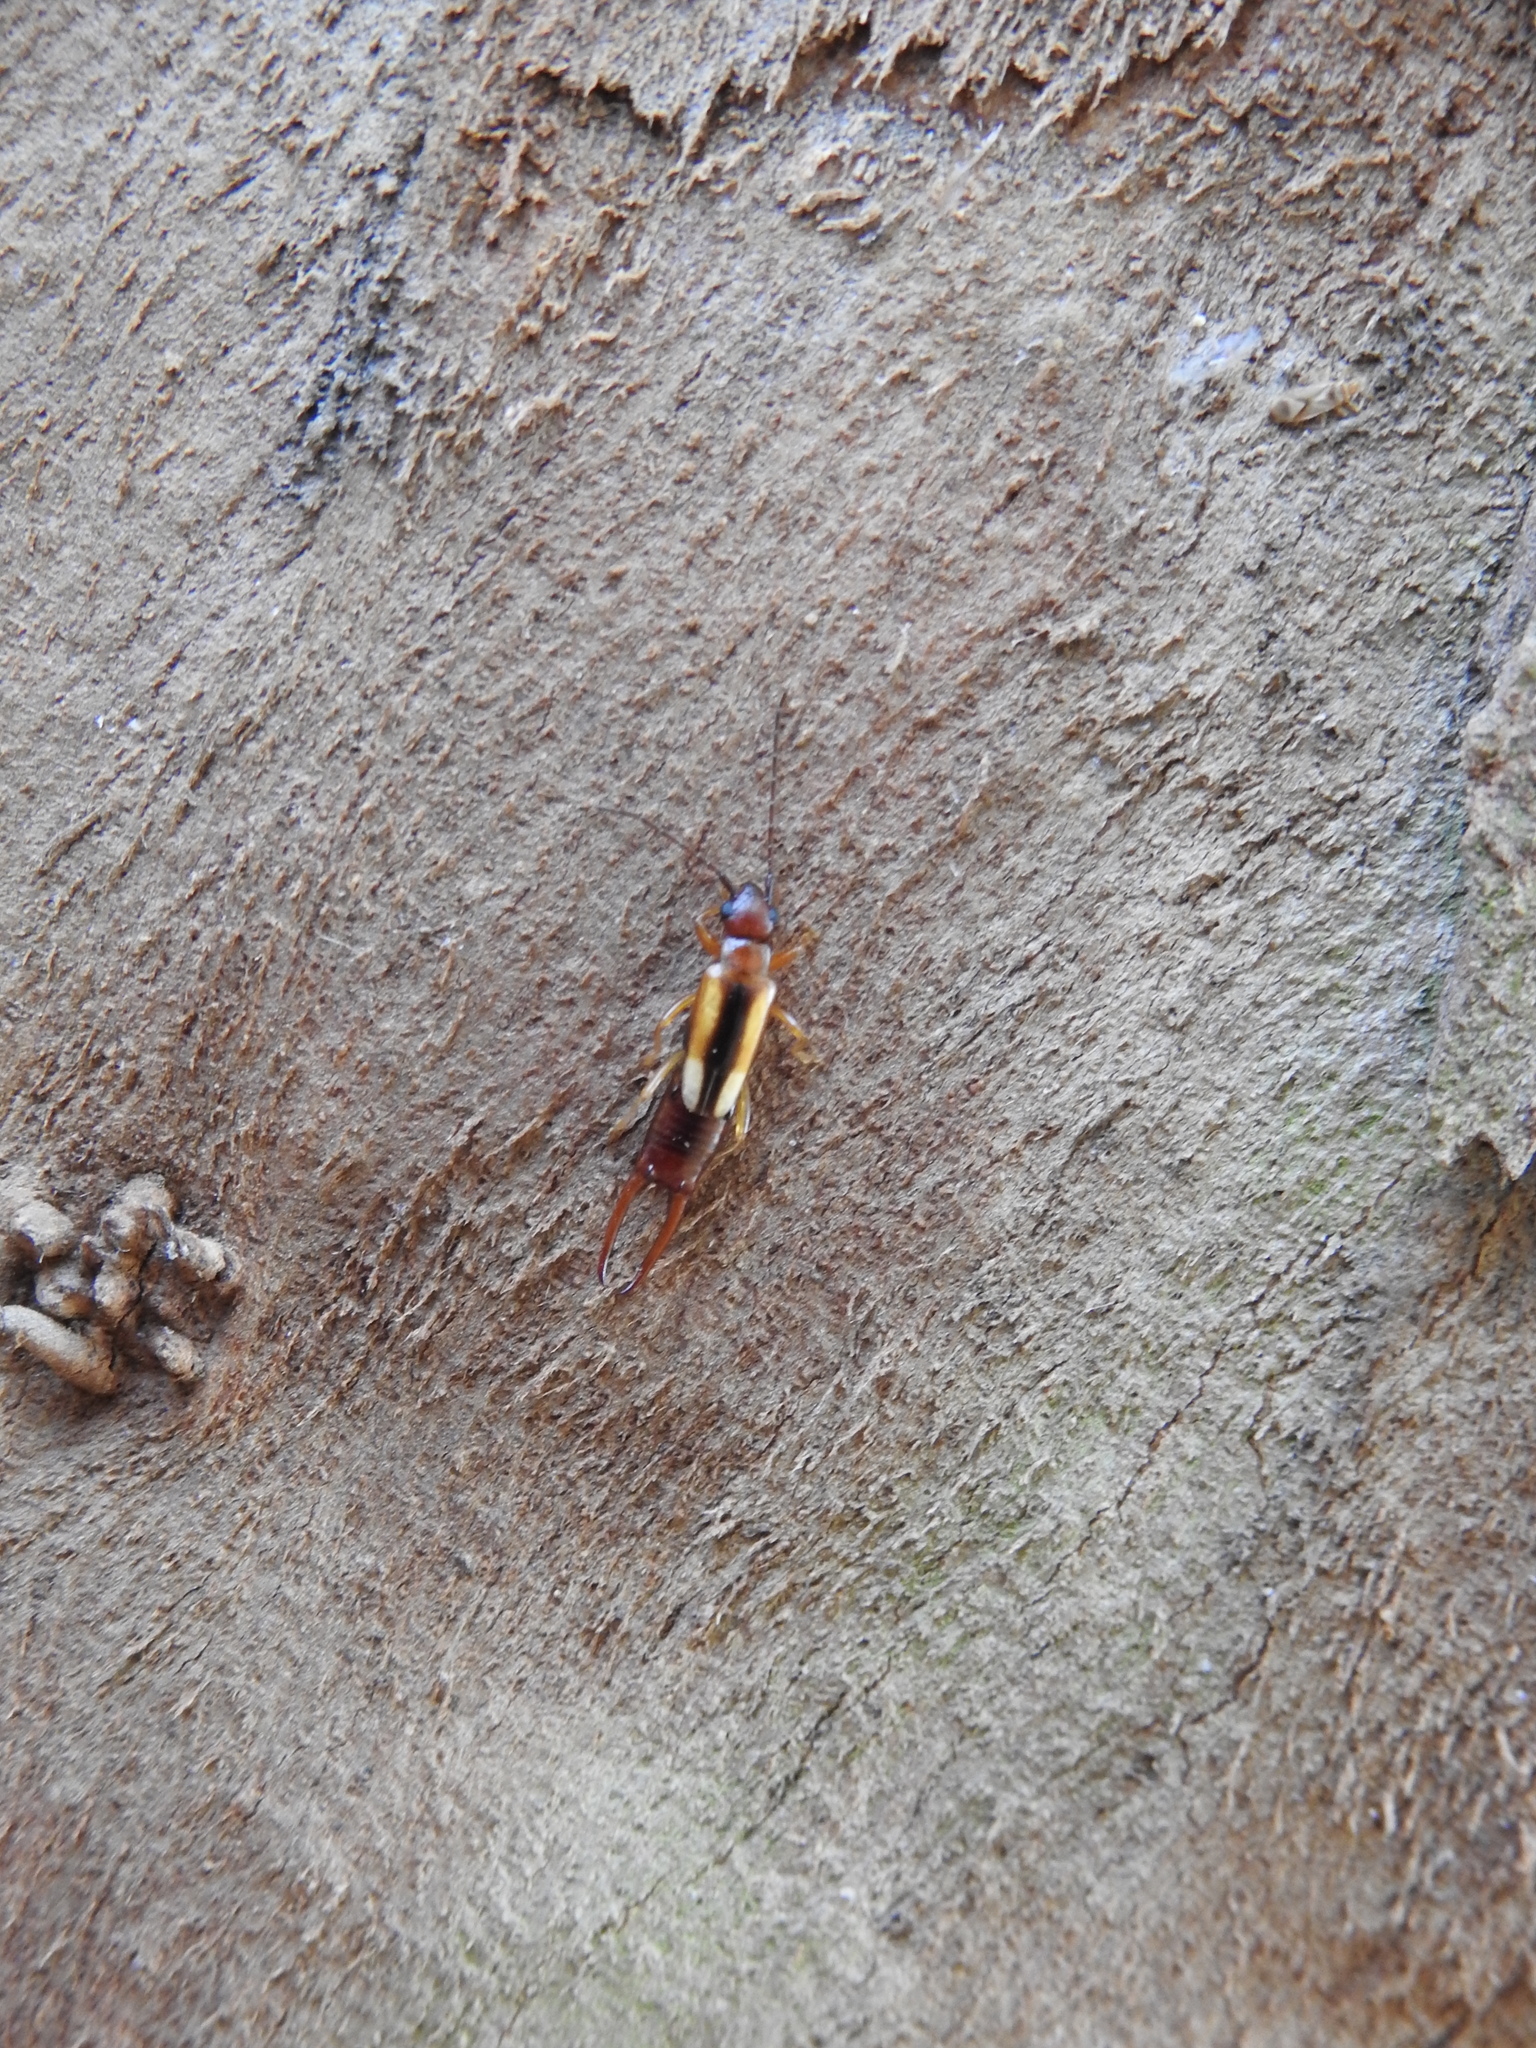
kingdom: Animalia
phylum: Arthropoda
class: Insecta
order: Dermaptera
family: Forficulidae
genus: Doru
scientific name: Doru
